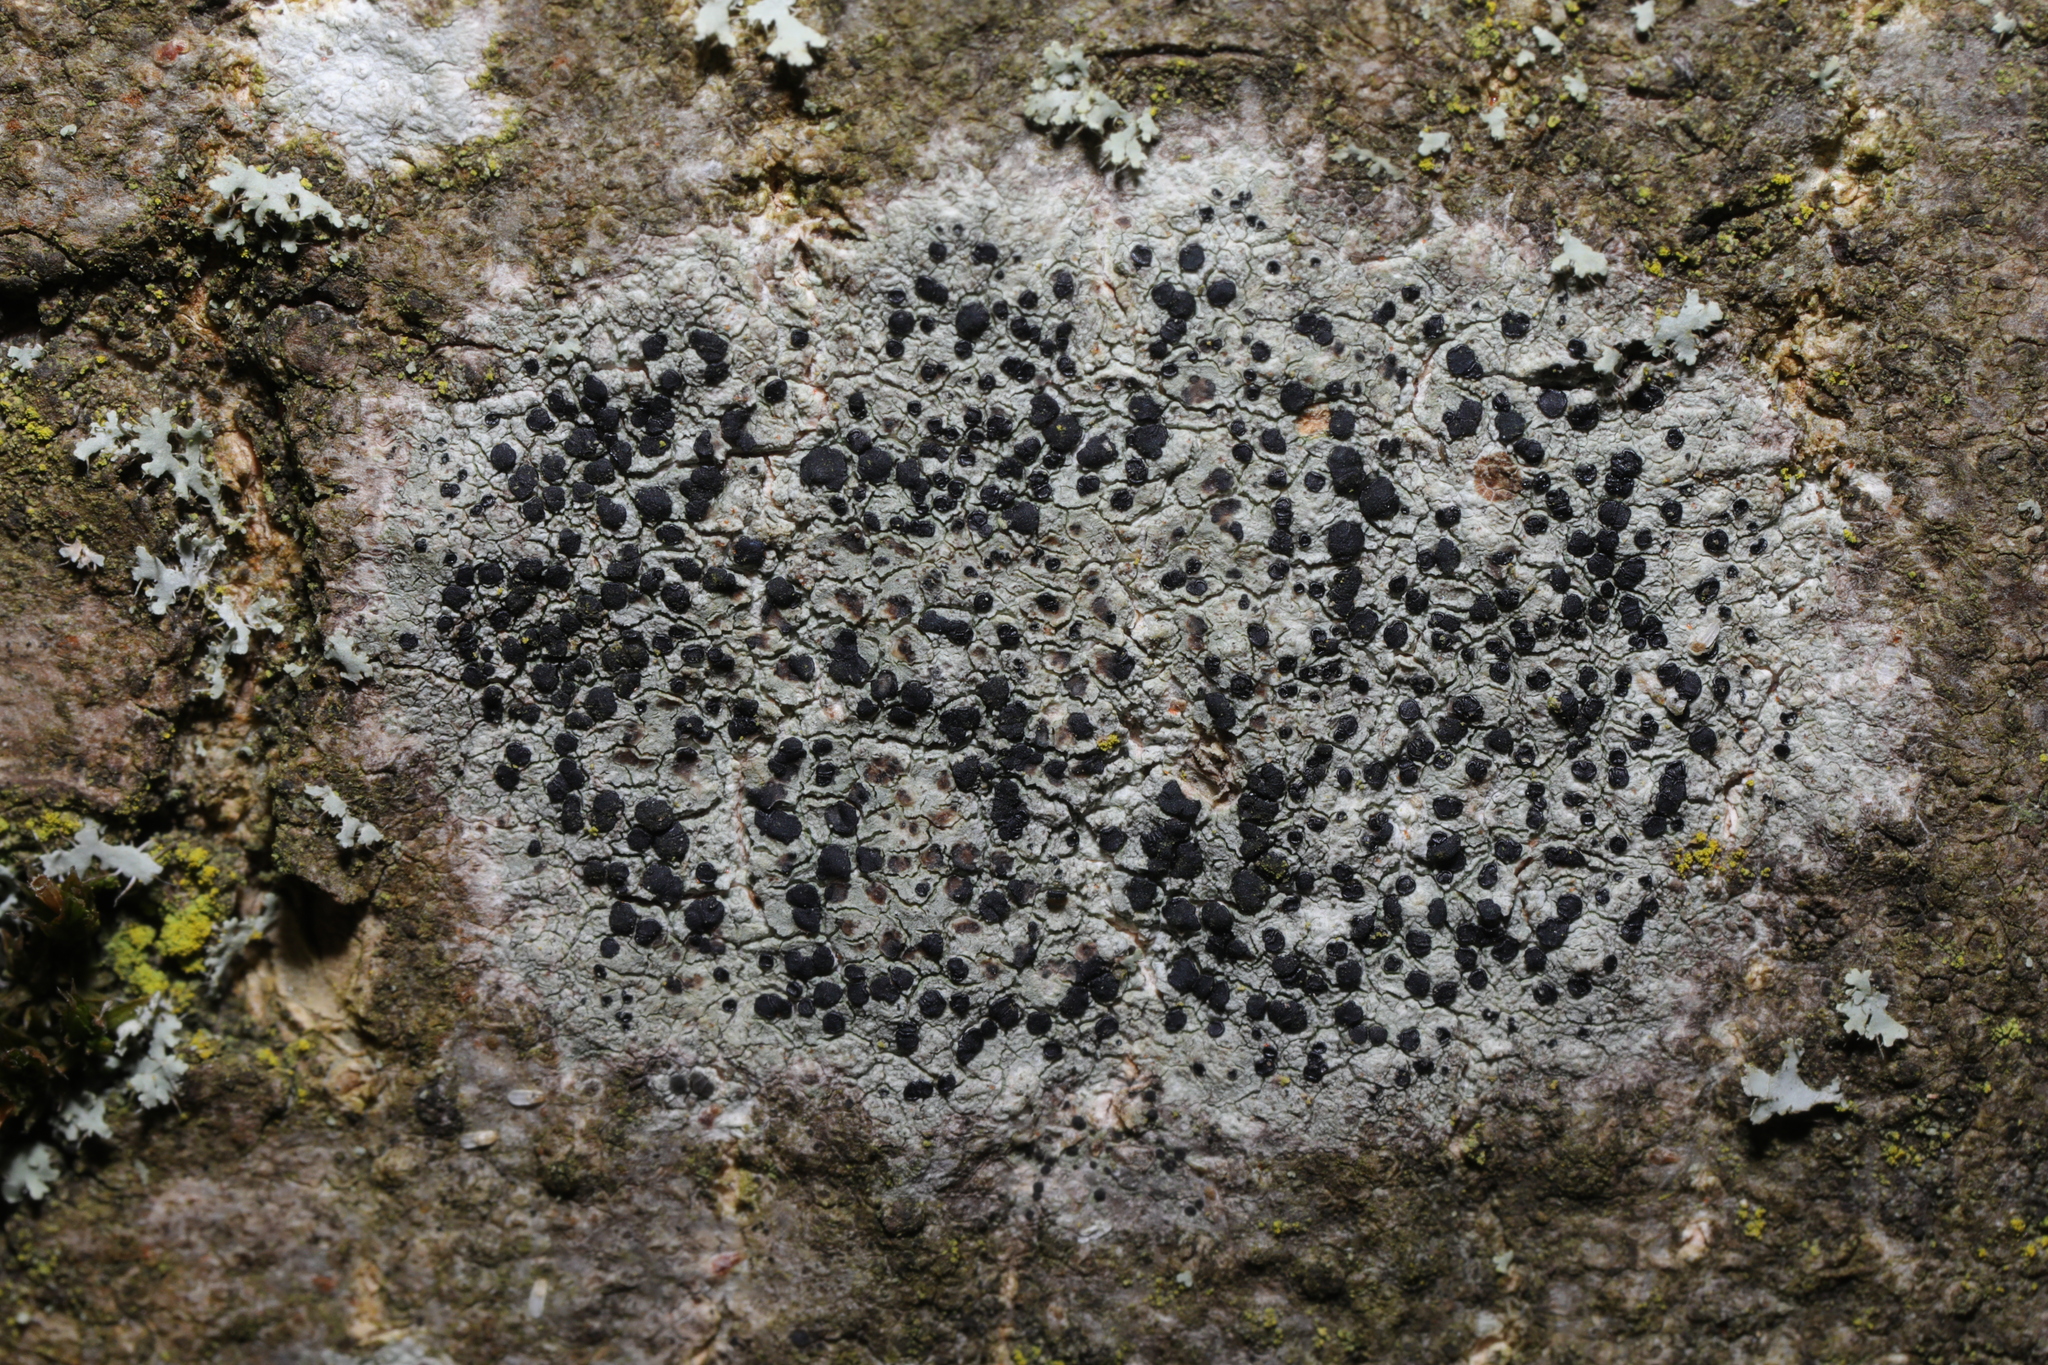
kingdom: Fungi
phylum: Ascomycota
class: Lecanoromycetes
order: Lecanorales
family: Lecanoraceae
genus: Lecidella
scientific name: Lecidella elaeochroma
